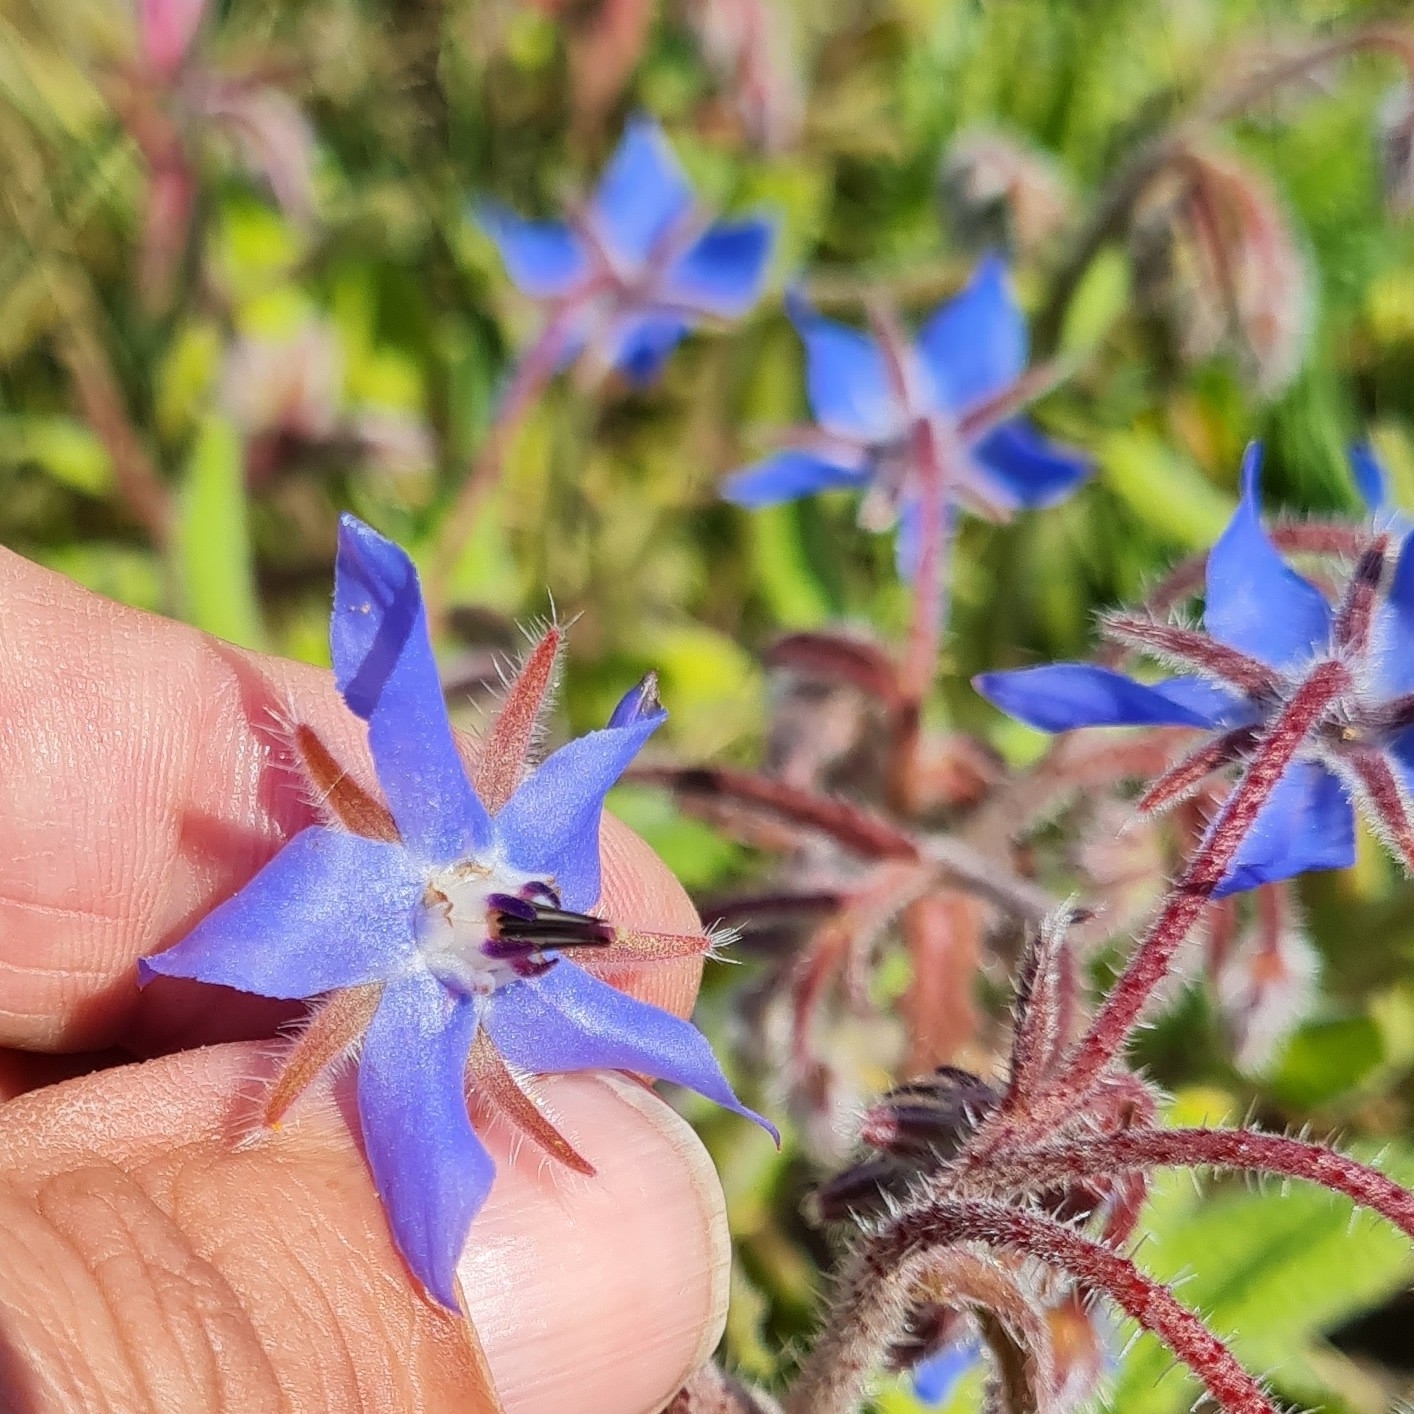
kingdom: Plantae
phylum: Tracheophyta
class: Magnoliopsida
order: Boraginales
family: Boraginaceae
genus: Borago
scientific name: Borago officinalis
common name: Borage
